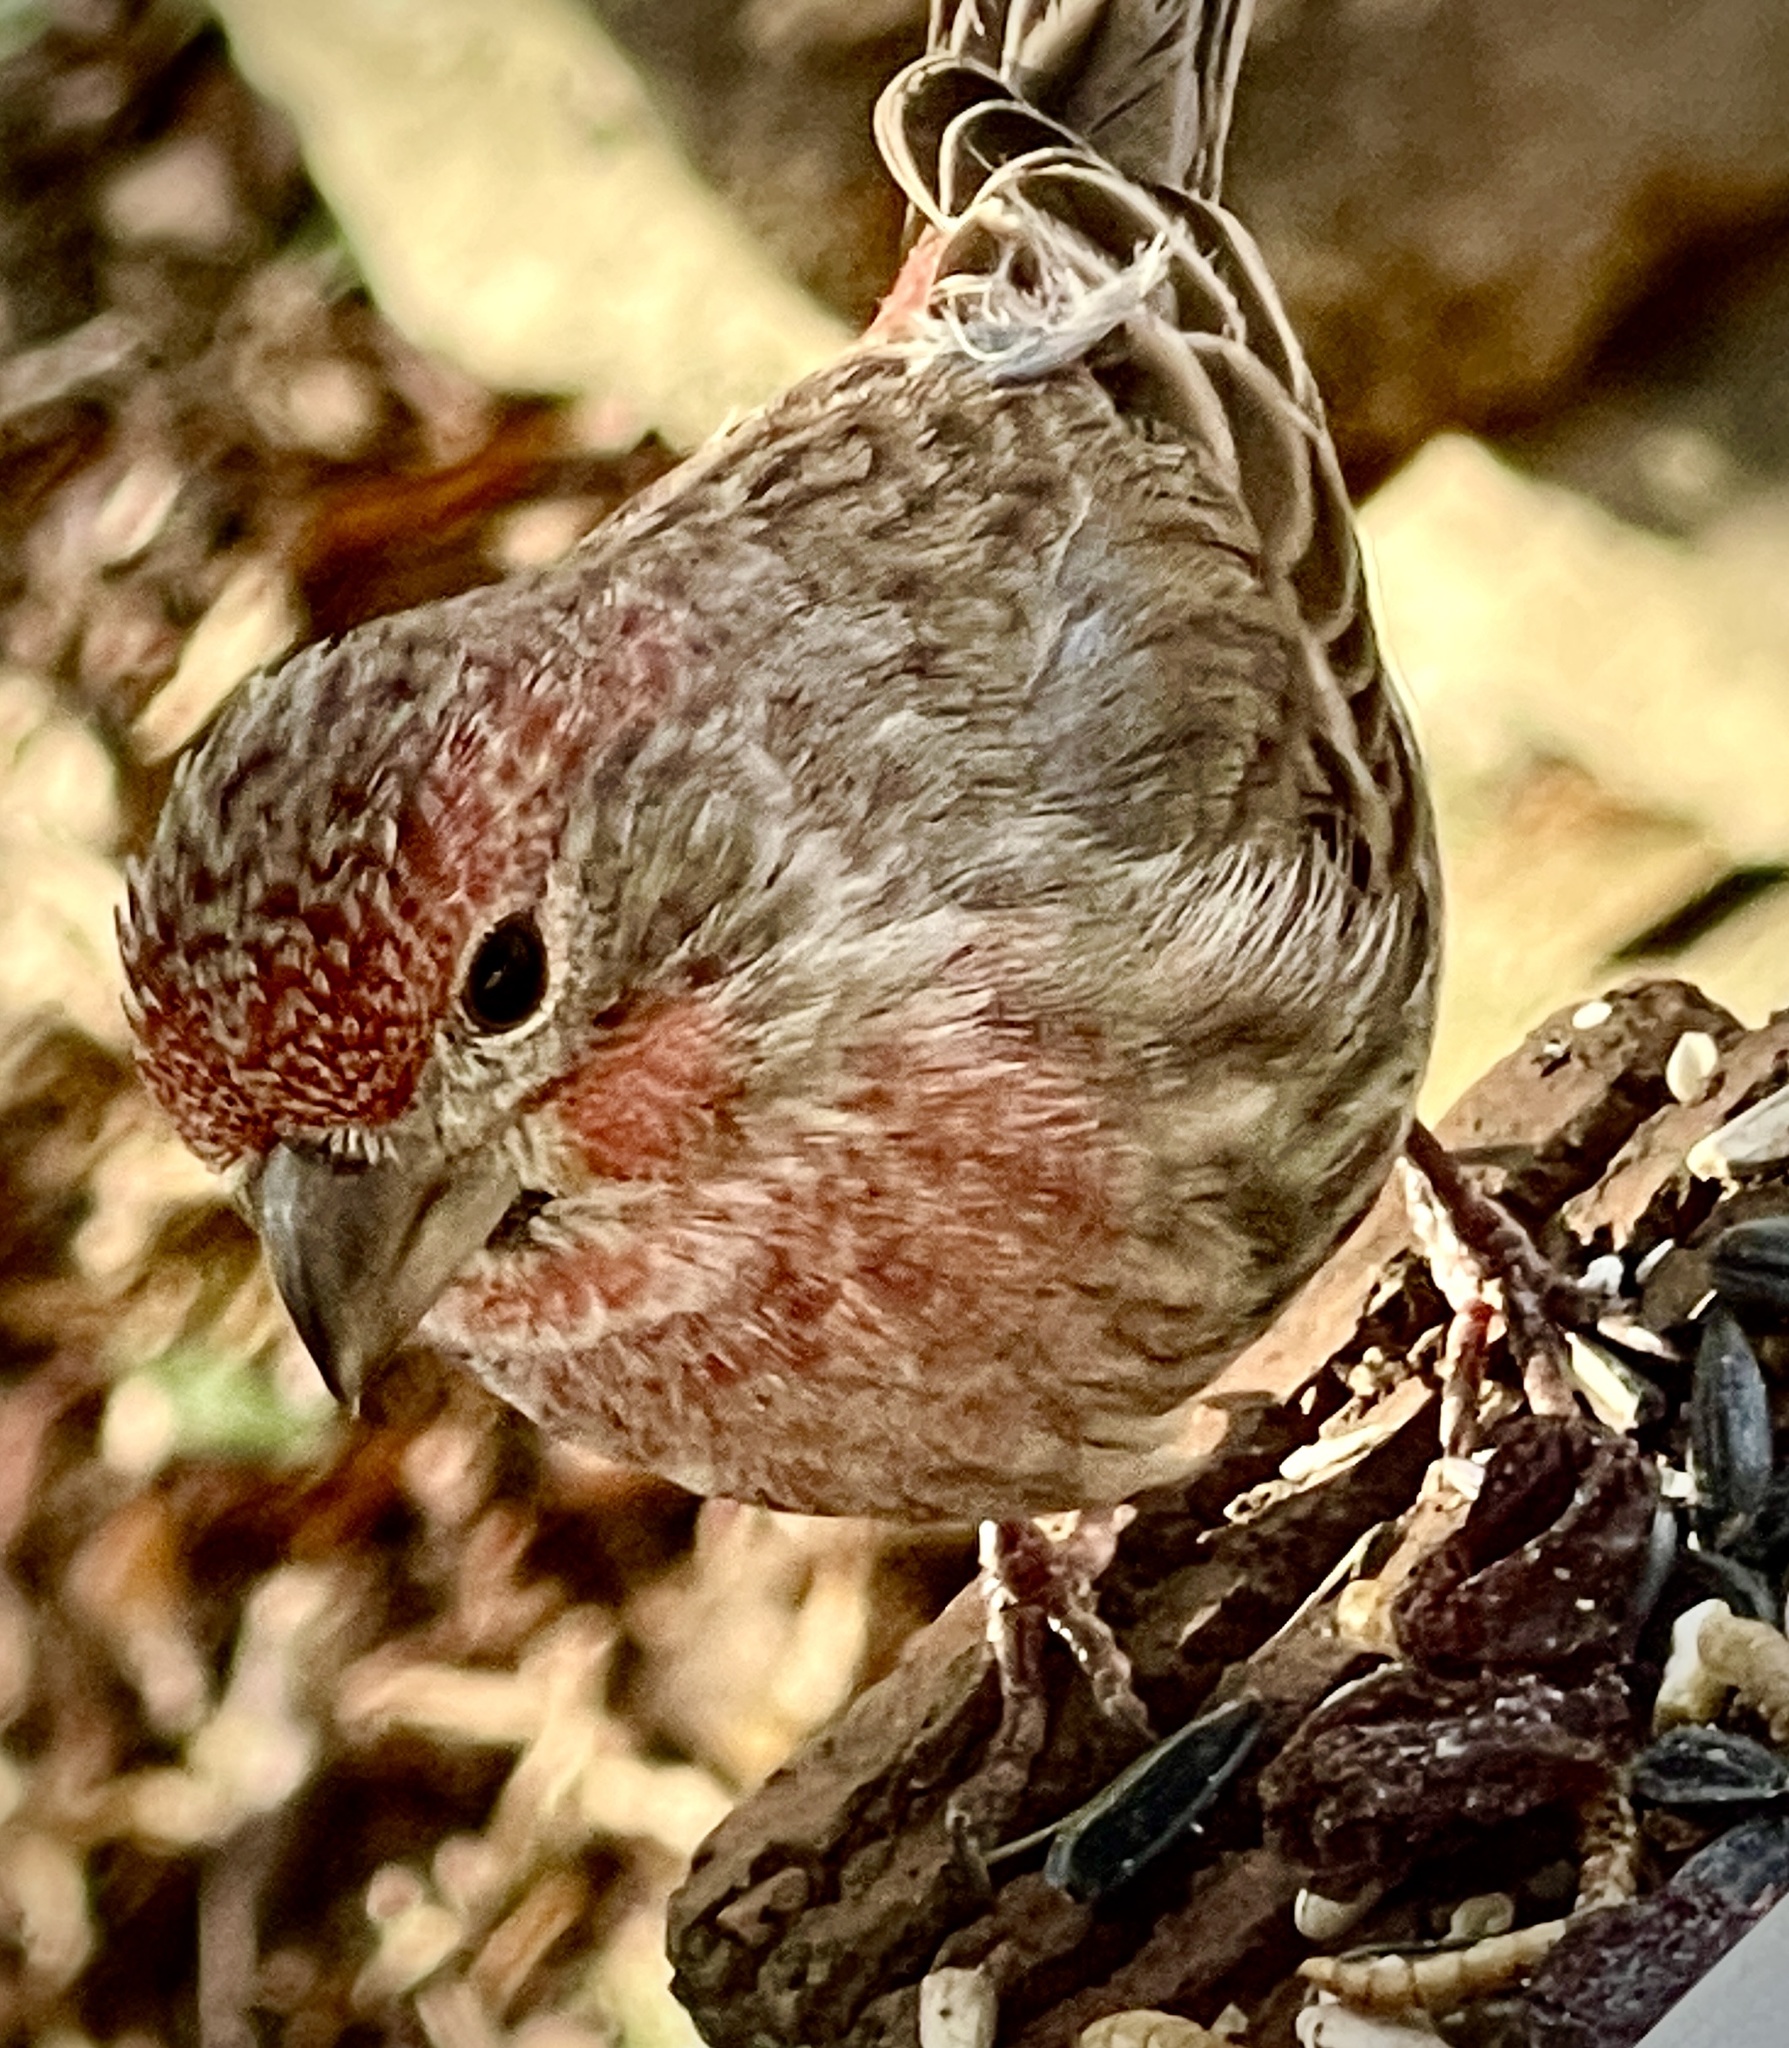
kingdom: Animalia
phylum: Chordata
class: Aves
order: Passeriformes
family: Fringillidae
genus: Haemorhous
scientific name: Haemorhous mexicanus
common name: House finch
